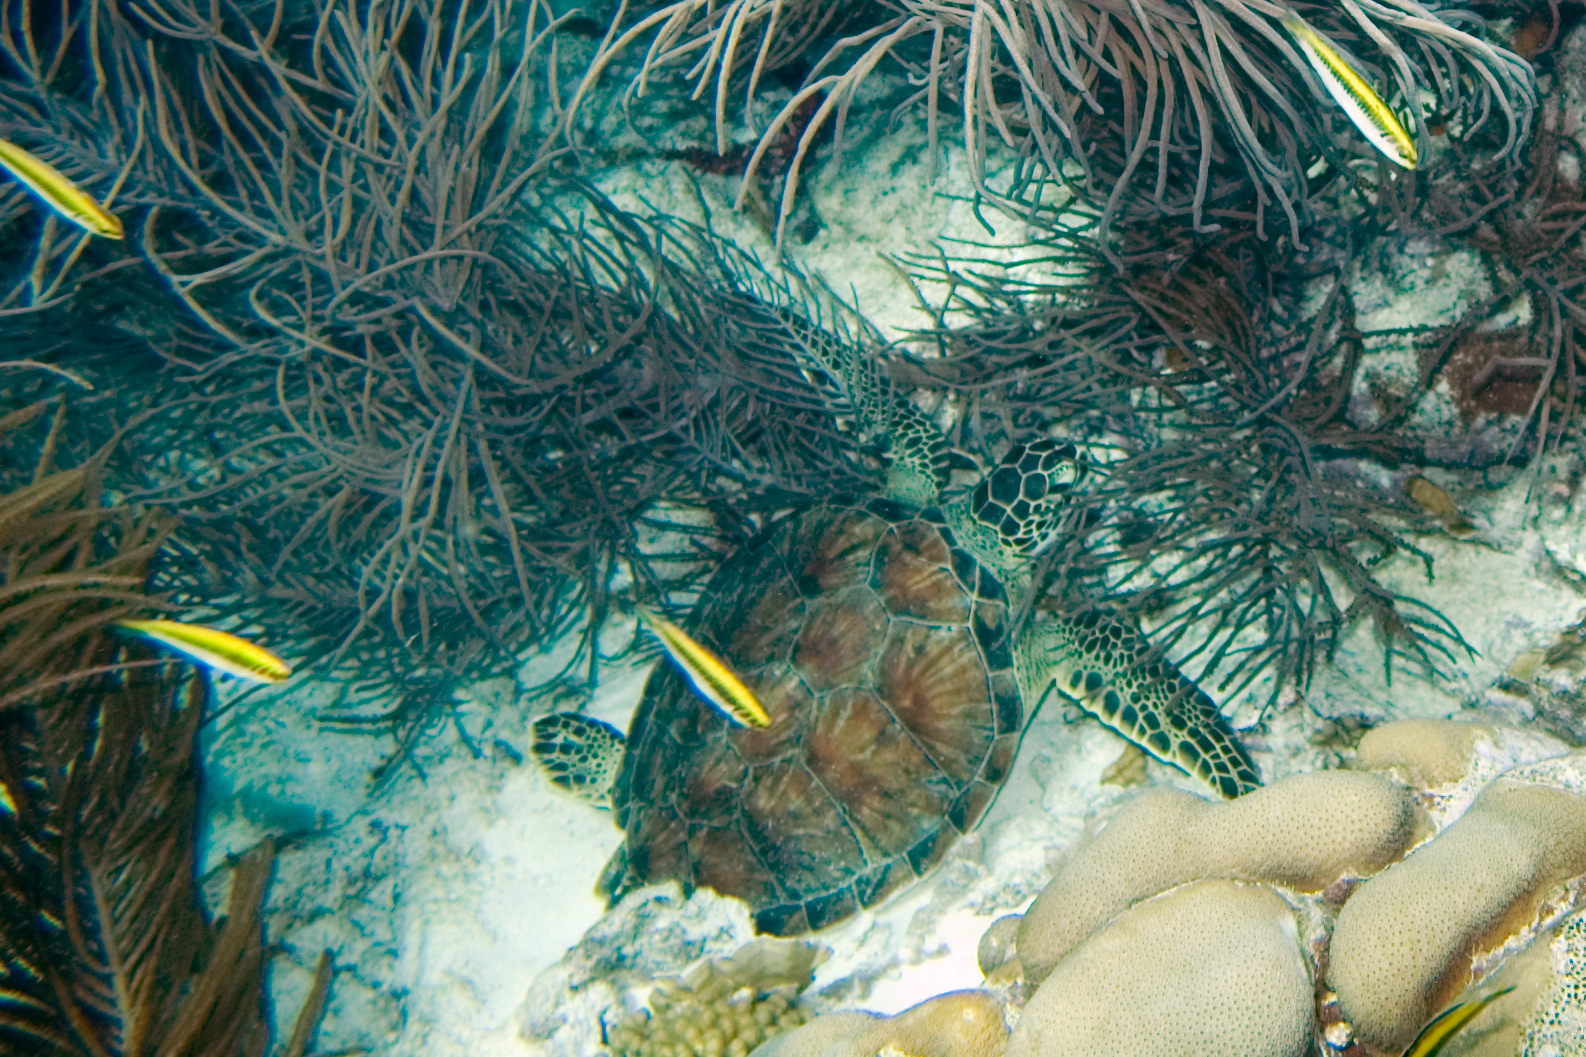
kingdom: Animalia
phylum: Chordata
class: Testudines
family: Cheloniidae
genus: Chelonia
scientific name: Chelonia mydas
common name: Green turtle
